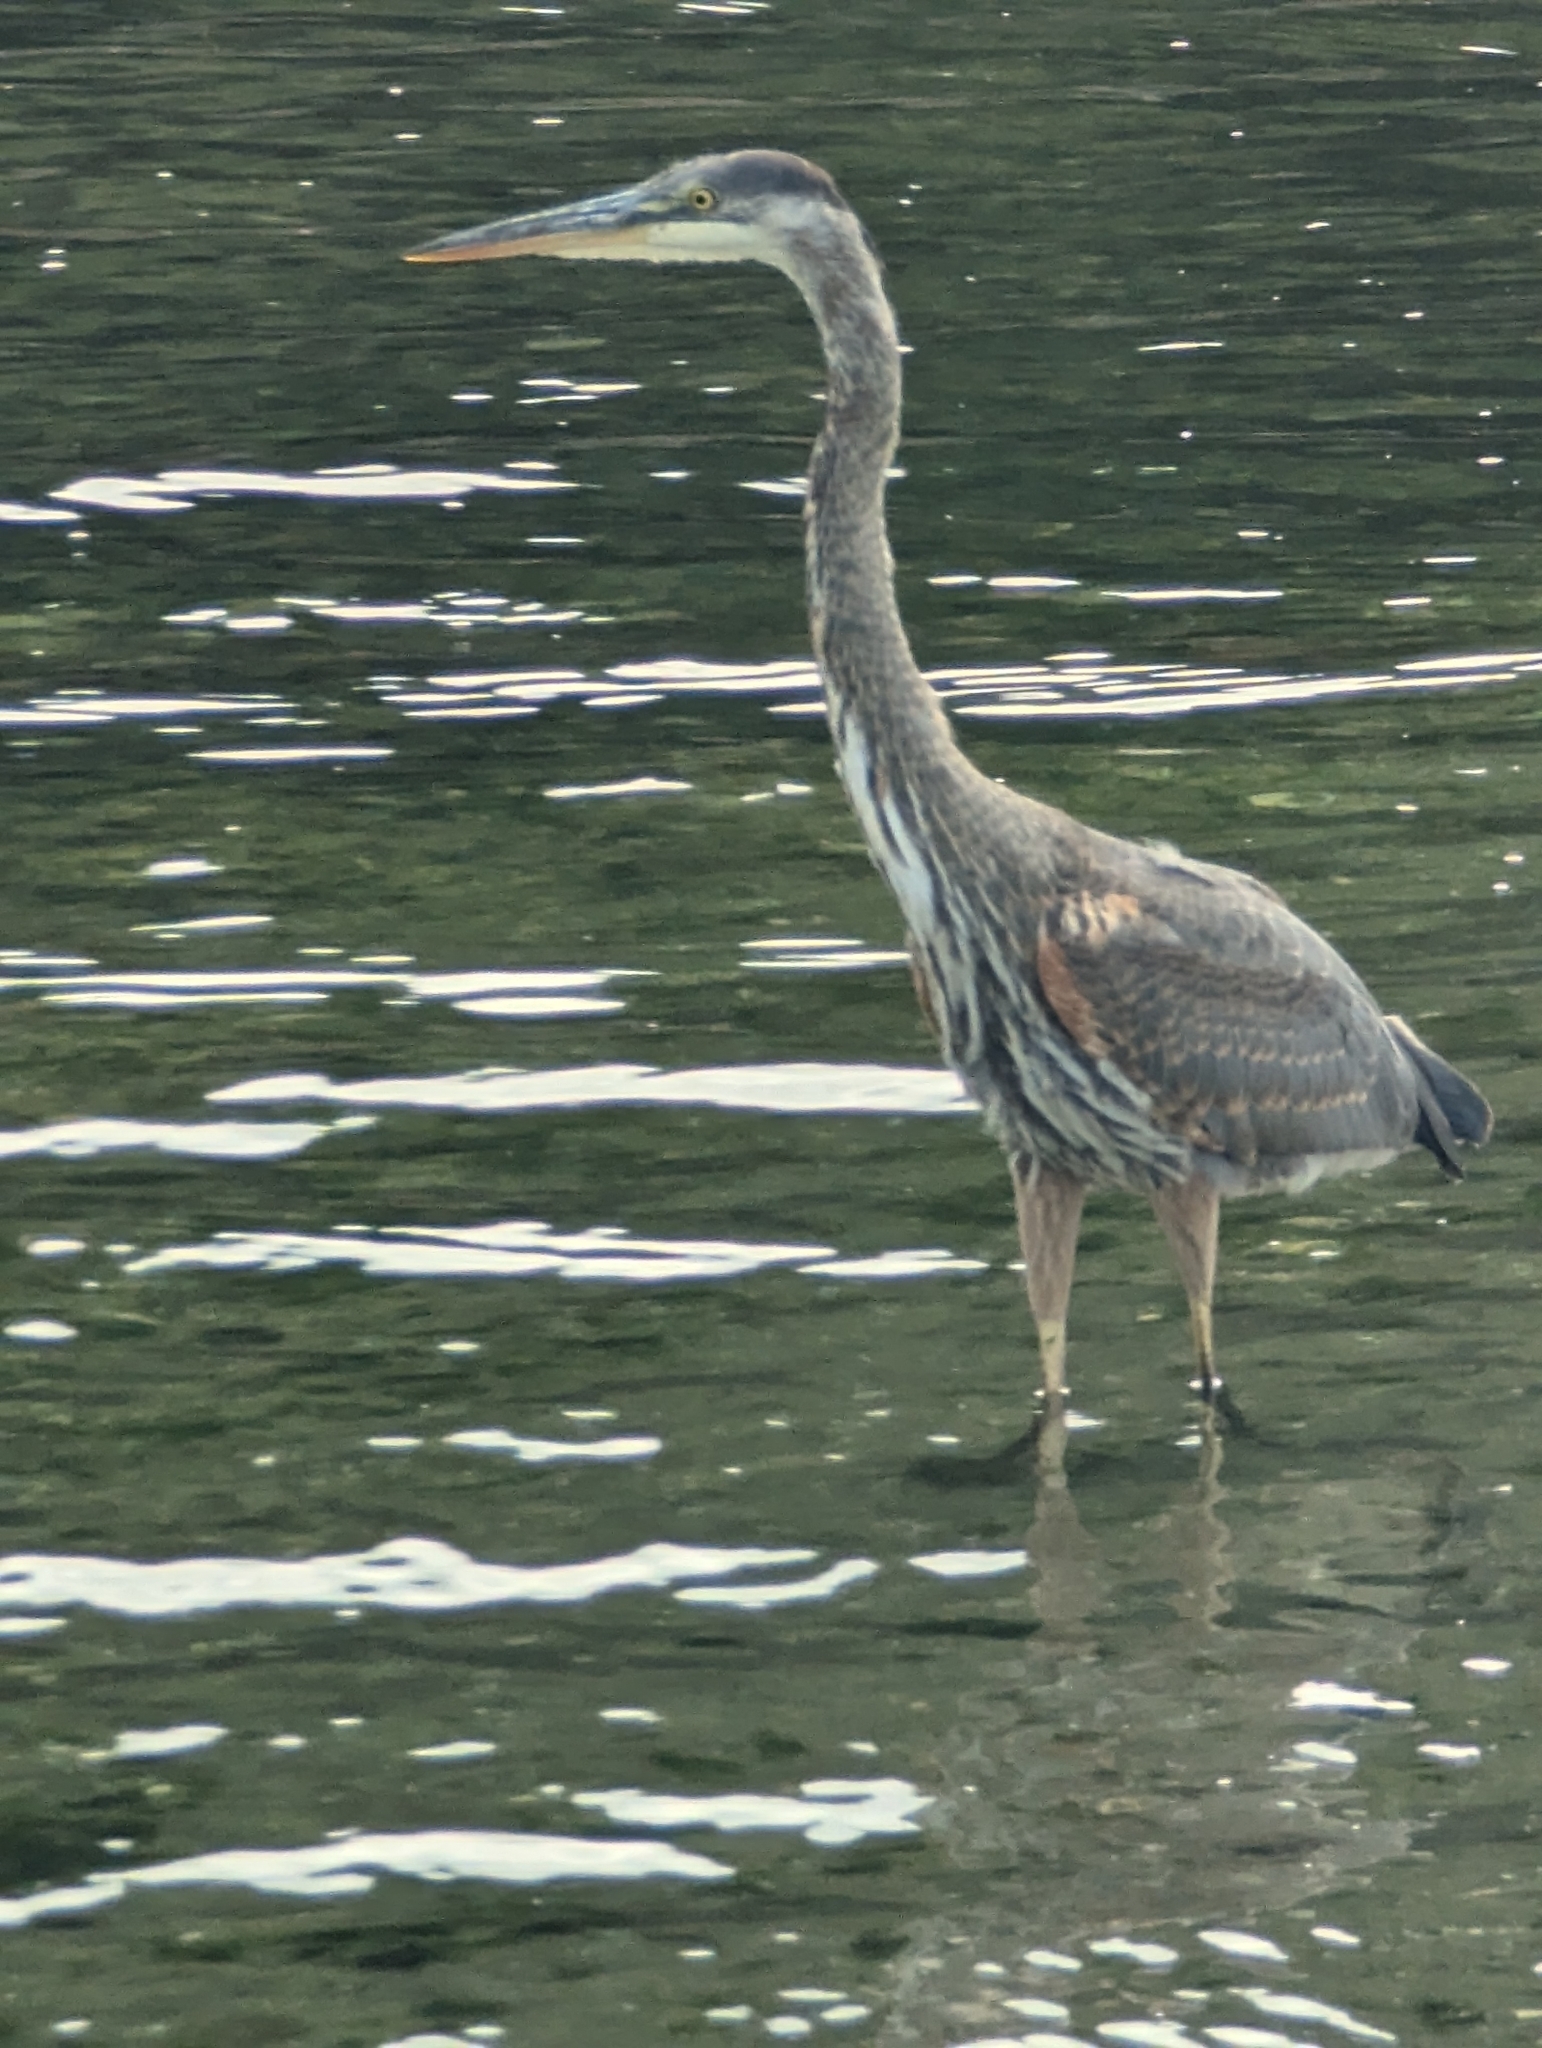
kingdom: Animalia
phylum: Chordata
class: Aves
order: Pelecaniformes
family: Ardeidae
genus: Ardea
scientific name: Ardea herodias
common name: Great blue heron
